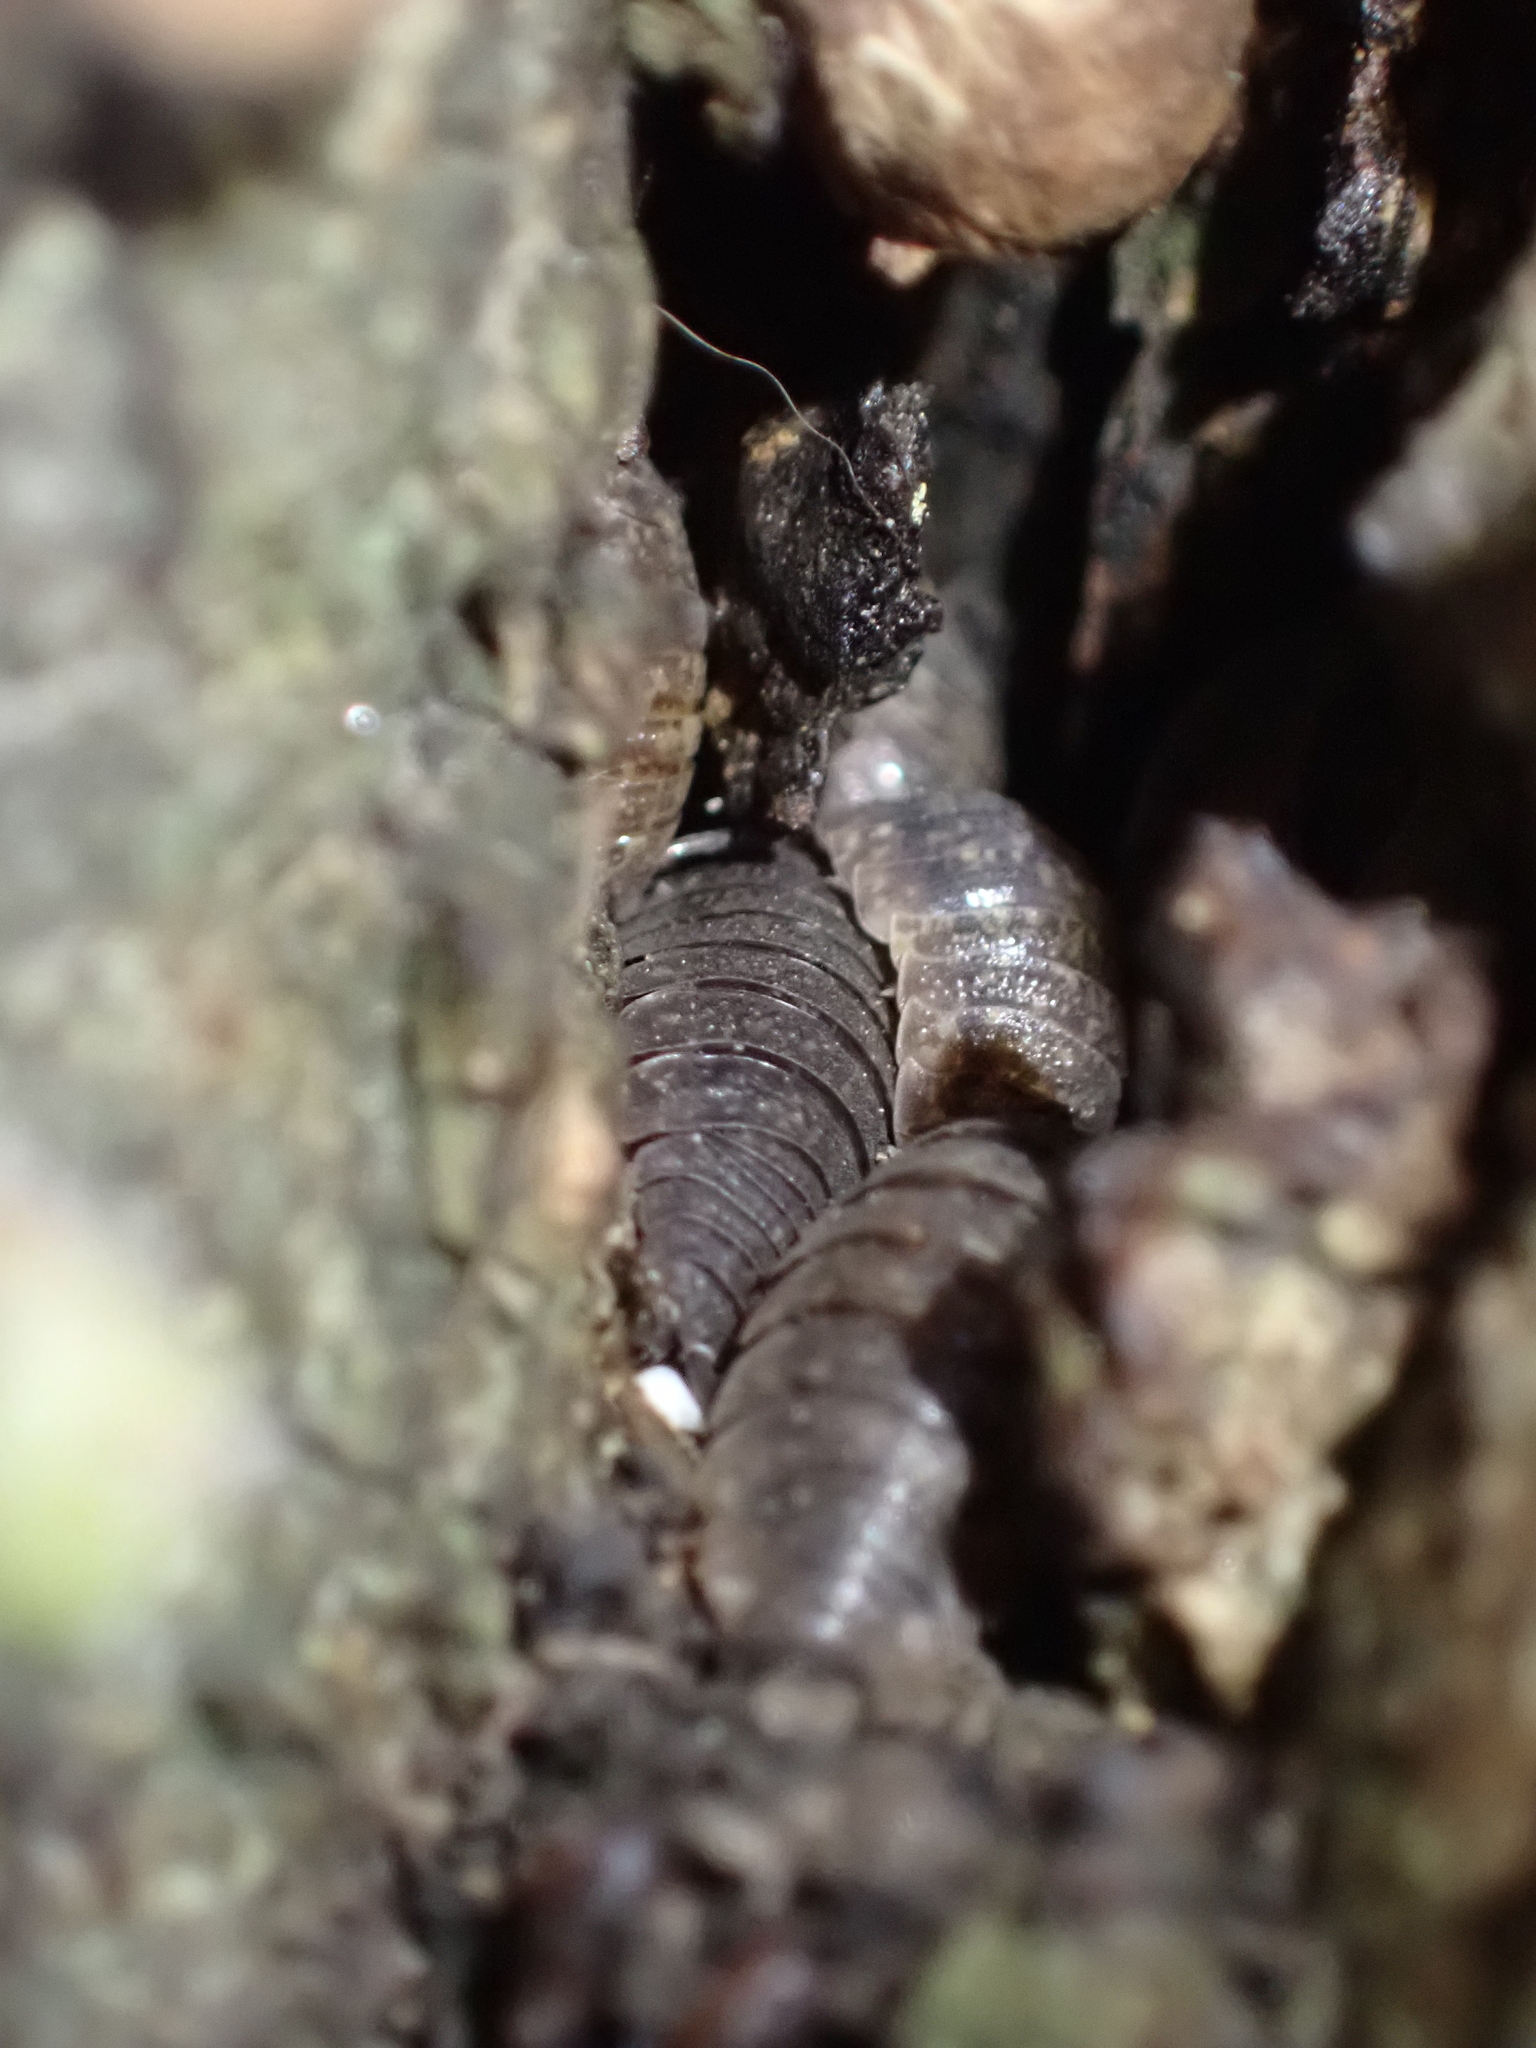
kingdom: Animalia
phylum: Arthropoda
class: Malacostraca
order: Isopoda
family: Porcellionidae
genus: Porcellio
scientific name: Porcellio scaber
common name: Common rough woodlouse
